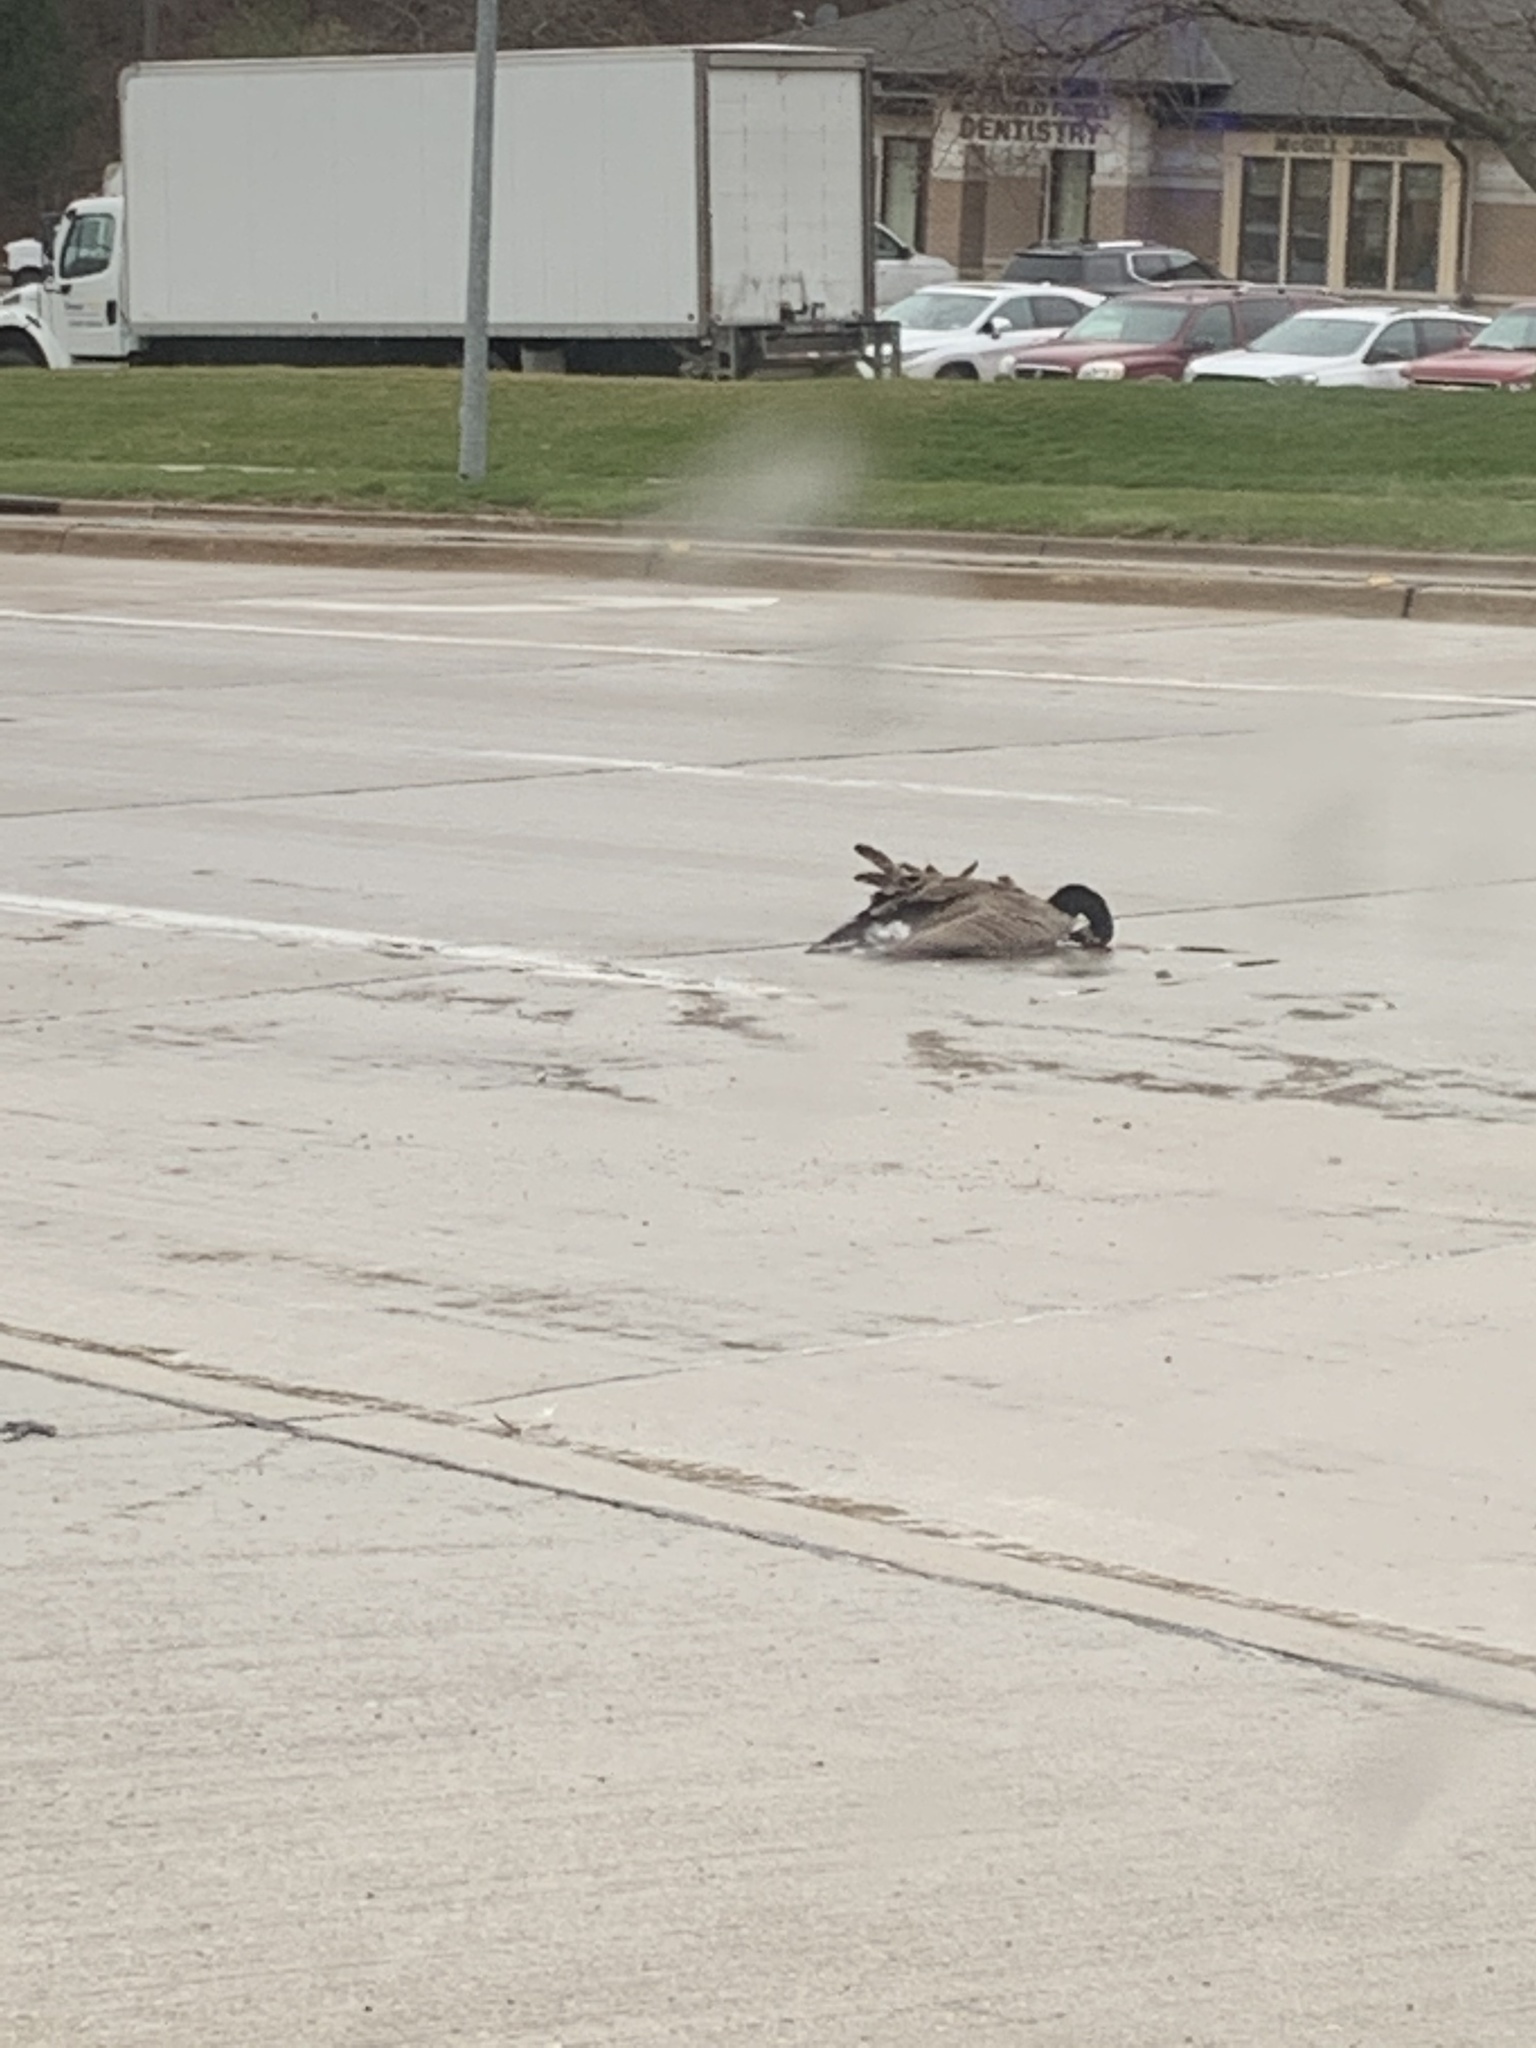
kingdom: Animalia
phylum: Chordata
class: Aves
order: Anseriformes
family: Anatidae
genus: Branta
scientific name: Branta canadensis
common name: Canada goose
